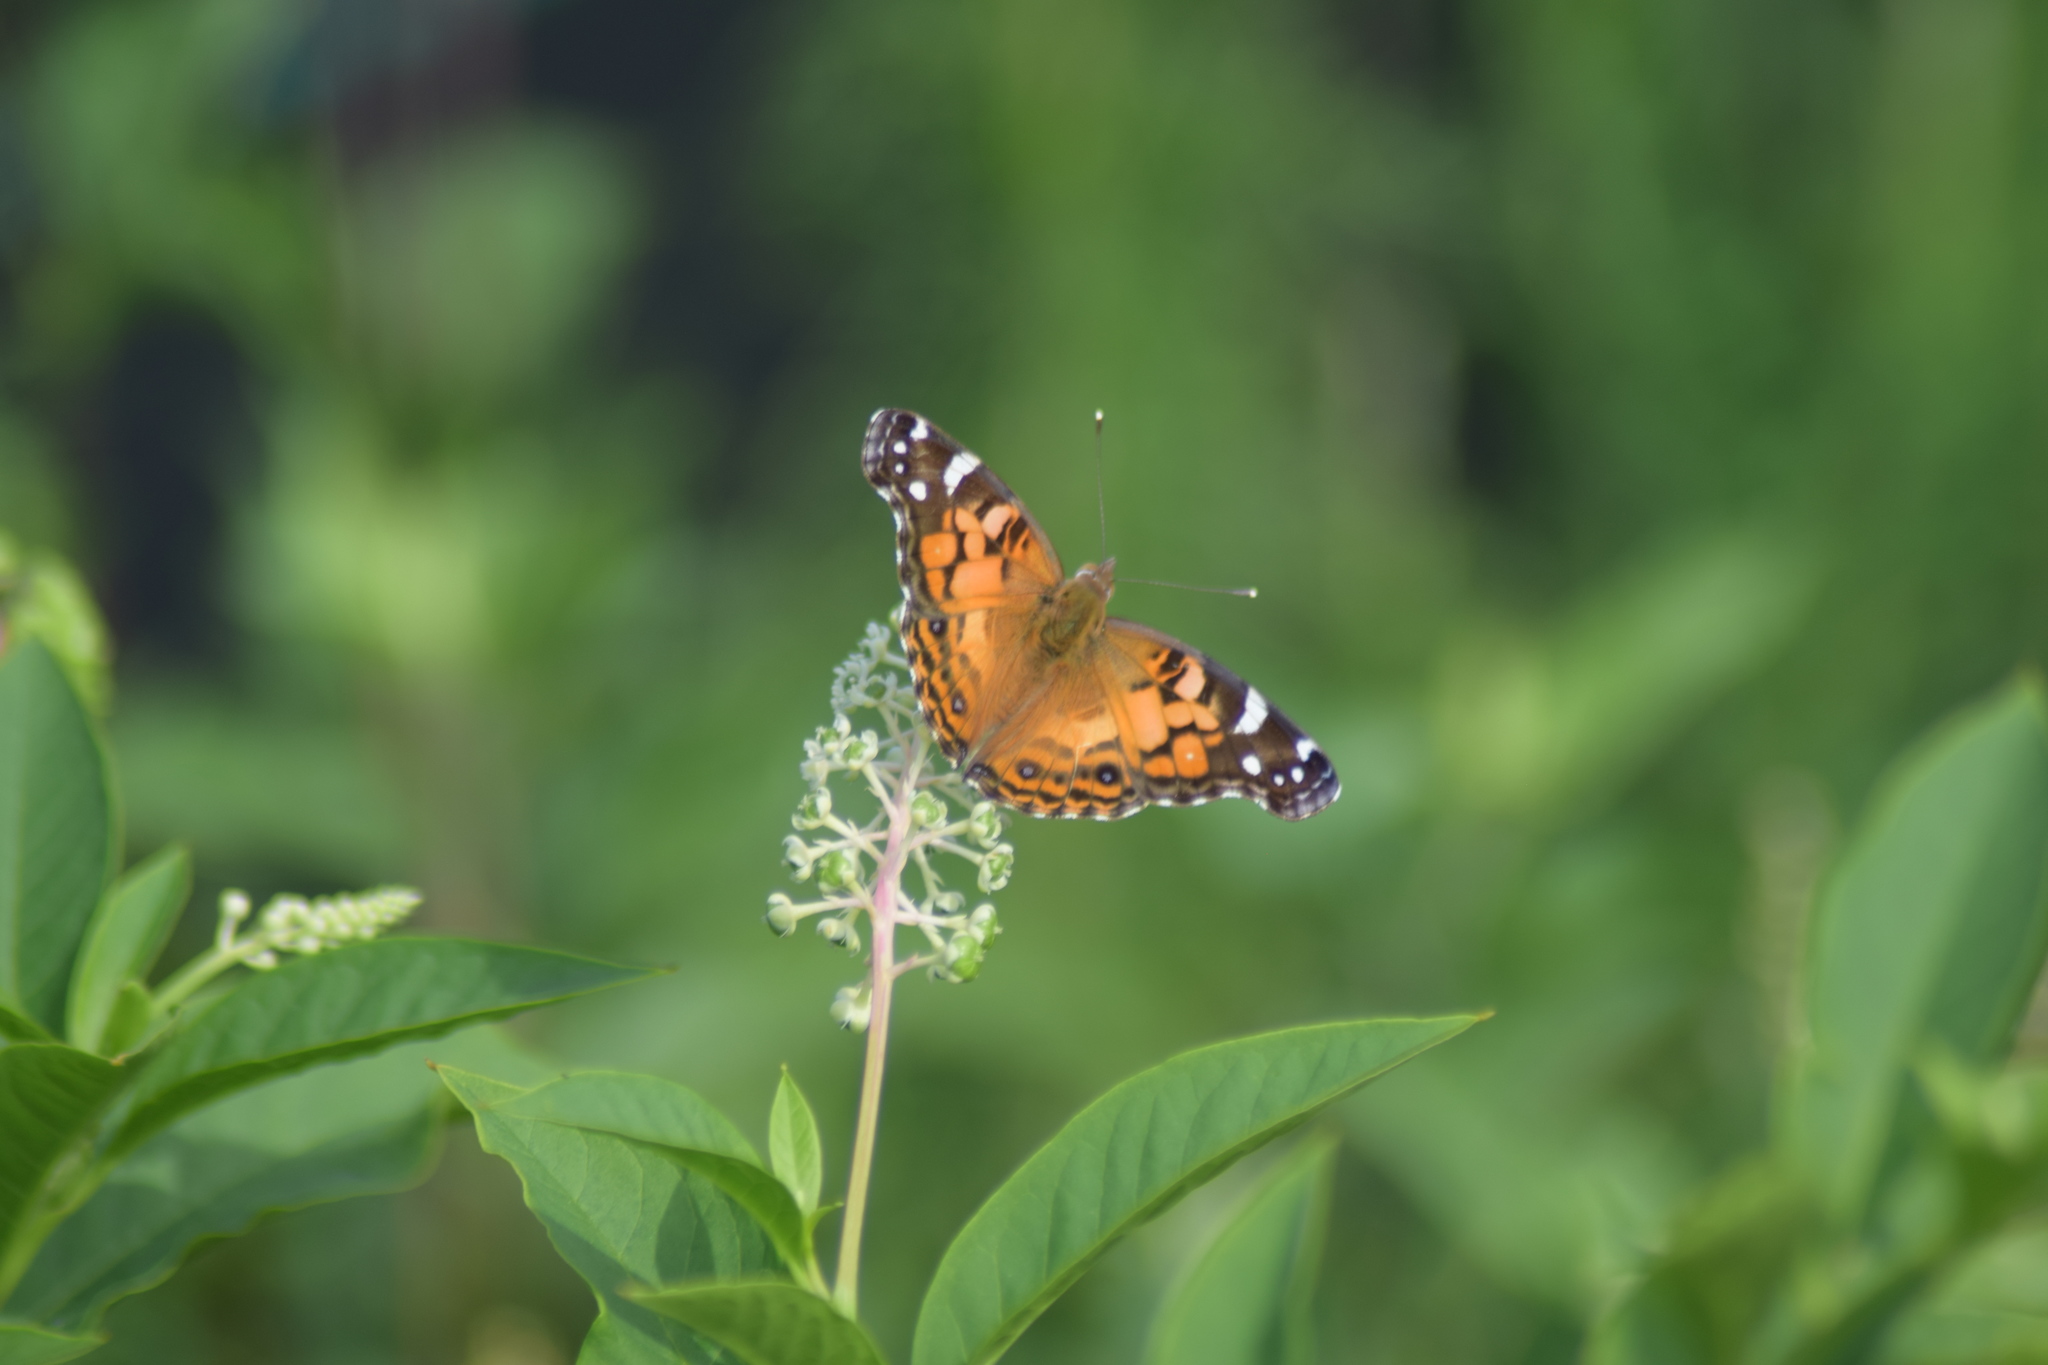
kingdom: Animalia
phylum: Arthropoda
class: Insecta
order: Lepidoptera
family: Nymphalidae
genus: Vanessa
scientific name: Vanessa virginiensis
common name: American lady
